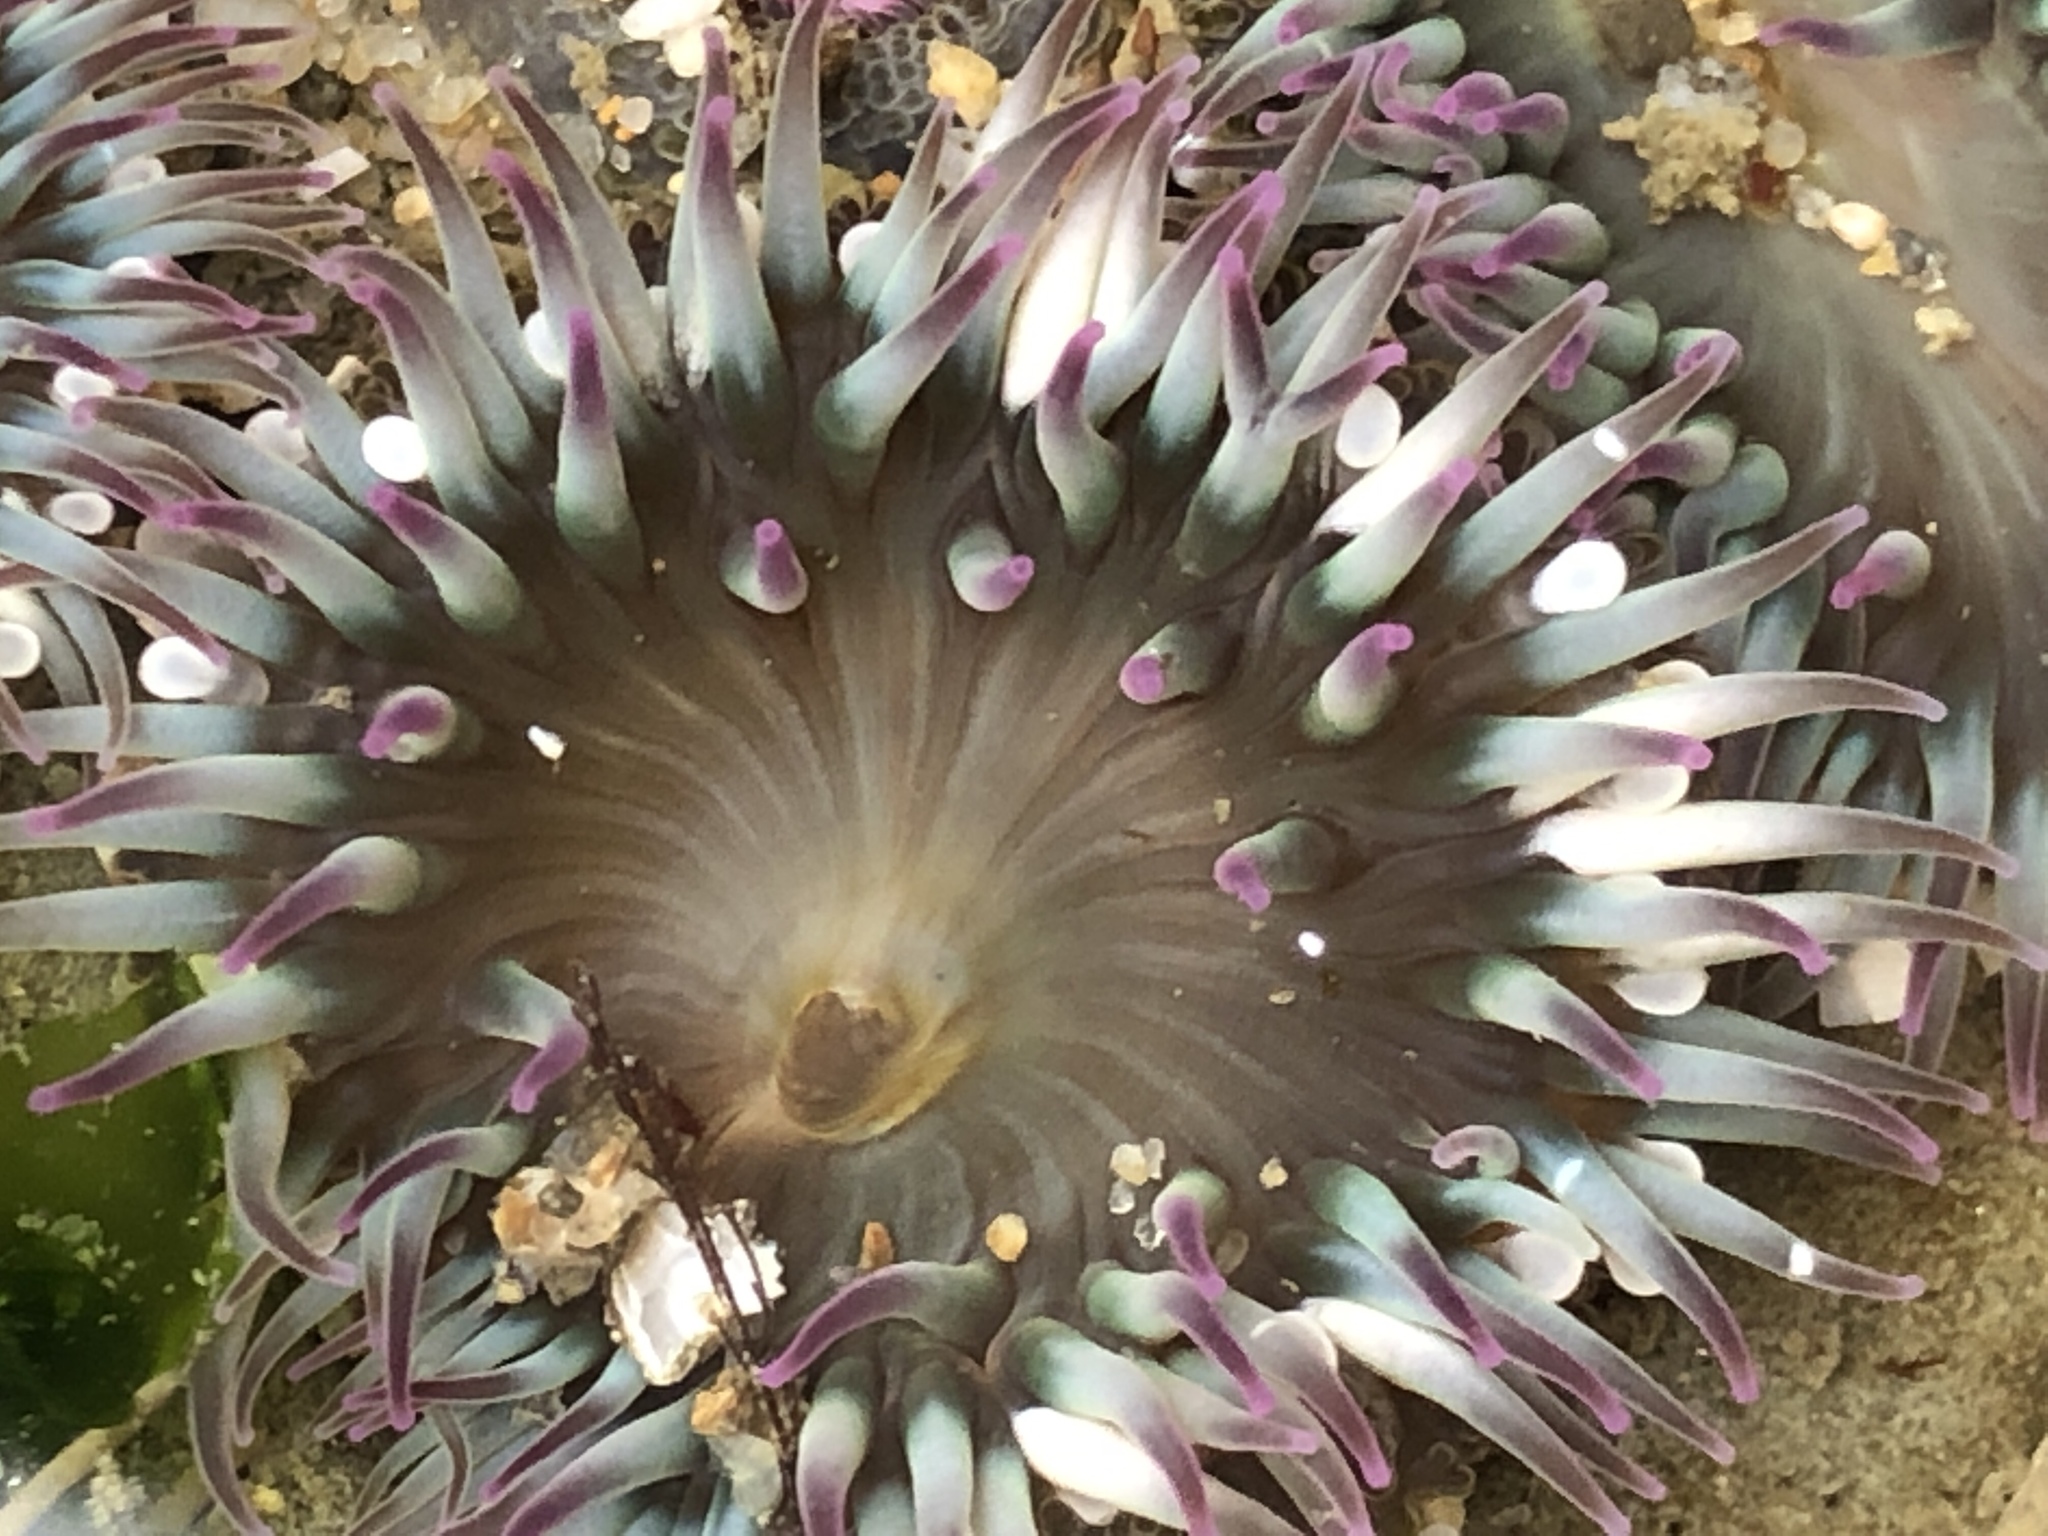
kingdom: Animalia
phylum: Cnidaria
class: Anthozoa
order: Actiniaria
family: Actiniidae
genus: Anthopleura
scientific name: Anthopleura elegantissima
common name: Clonal anemone
